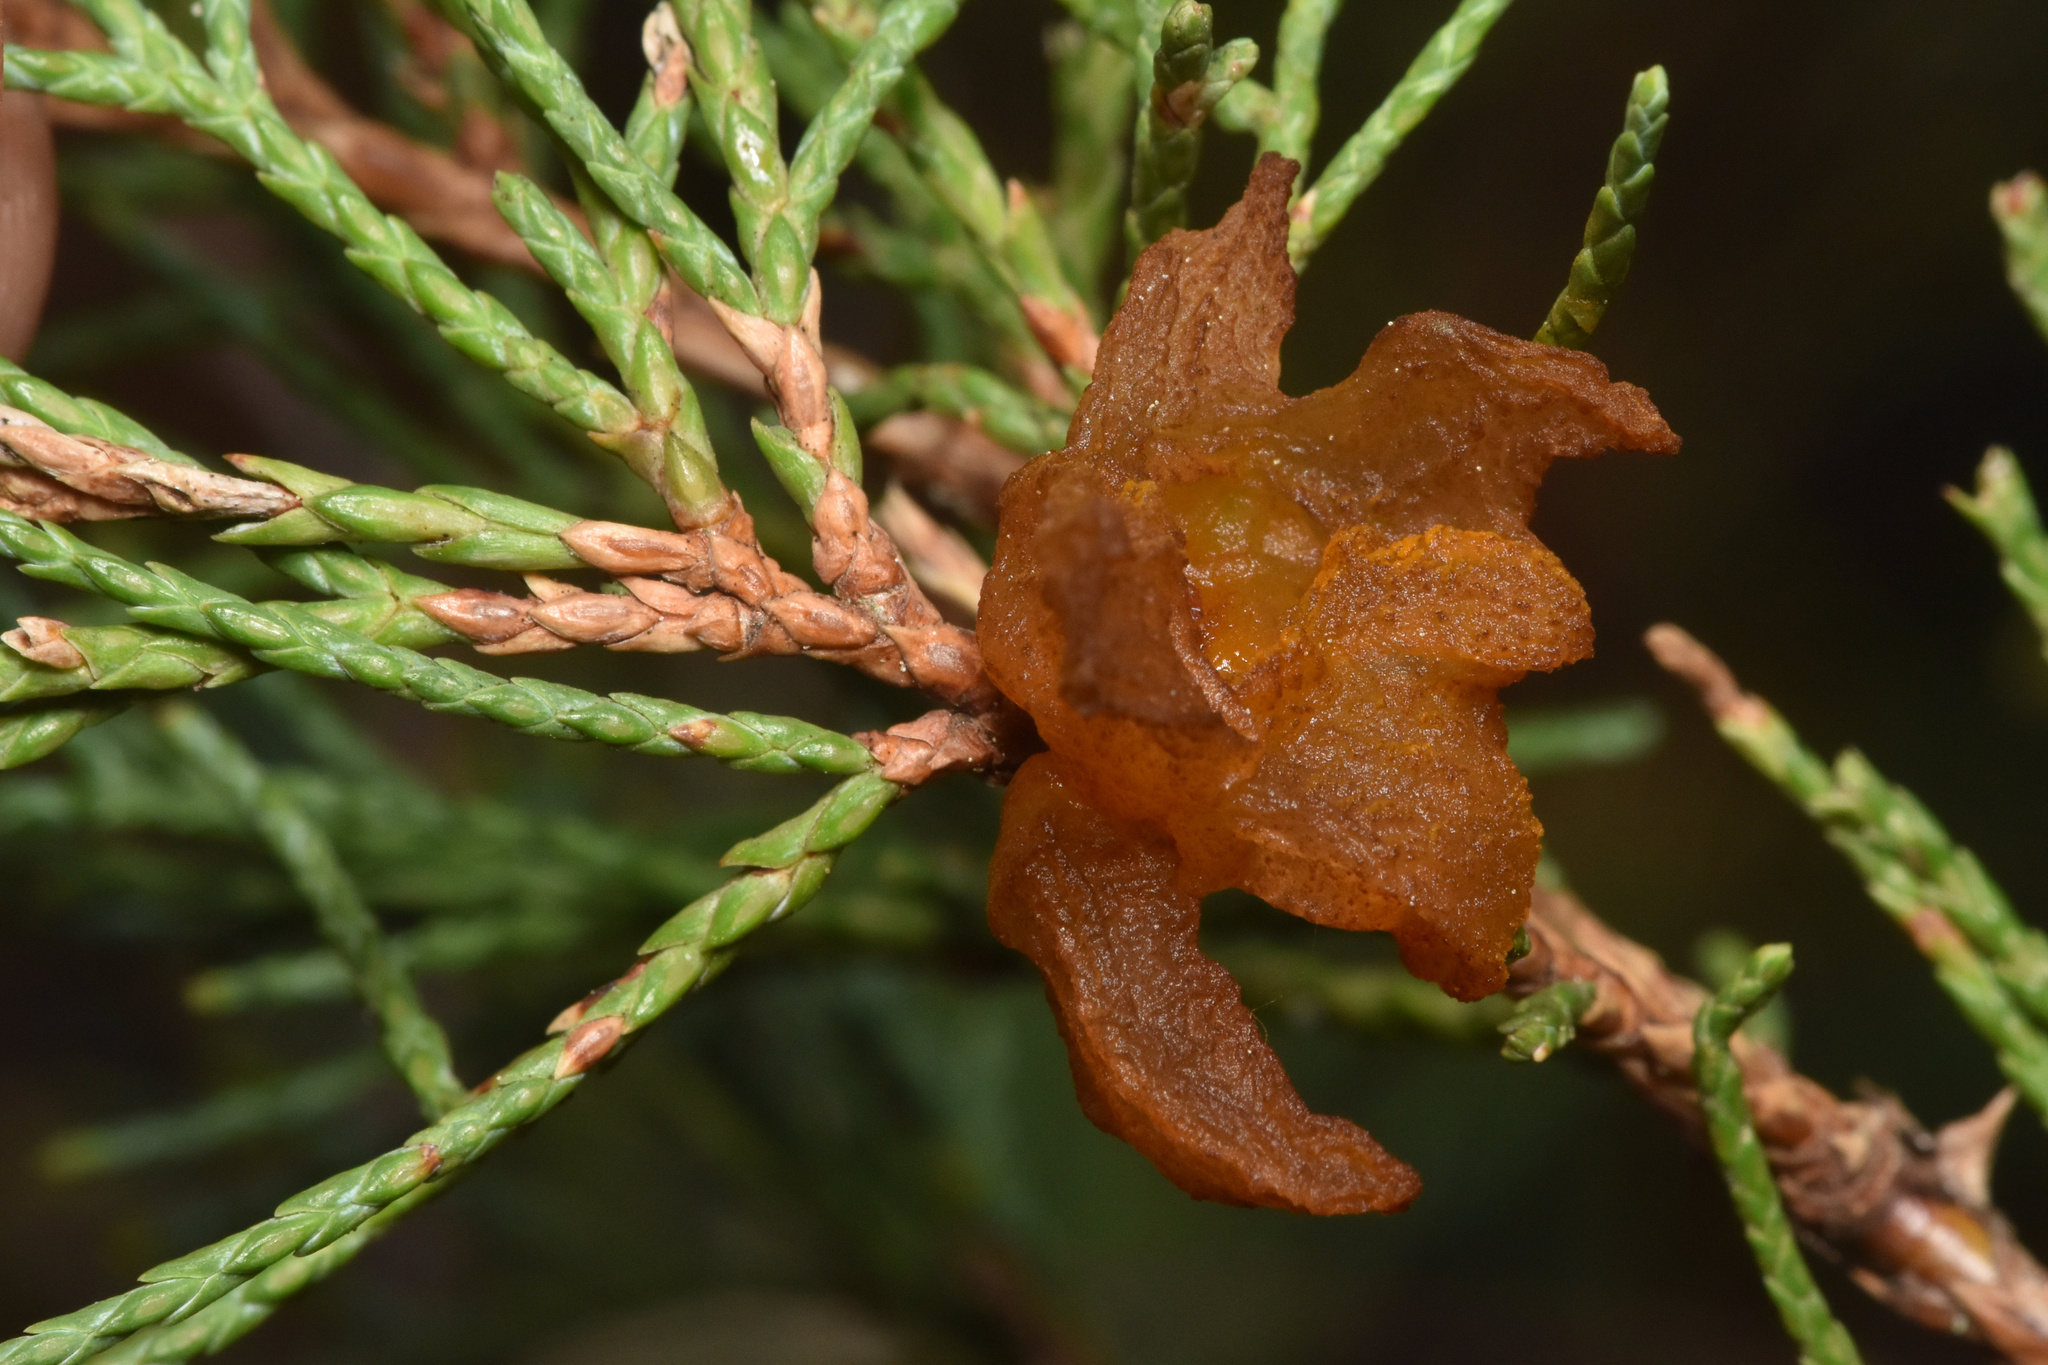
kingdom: Fungi
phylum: Basidiomycota
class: Pucciniomycetes
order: Pucciniales
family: Gymnosporangiaceae
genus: Gymnosporangium
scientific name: Gymnosporangium juniperi-virginianae
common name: Juniper-apple rust
